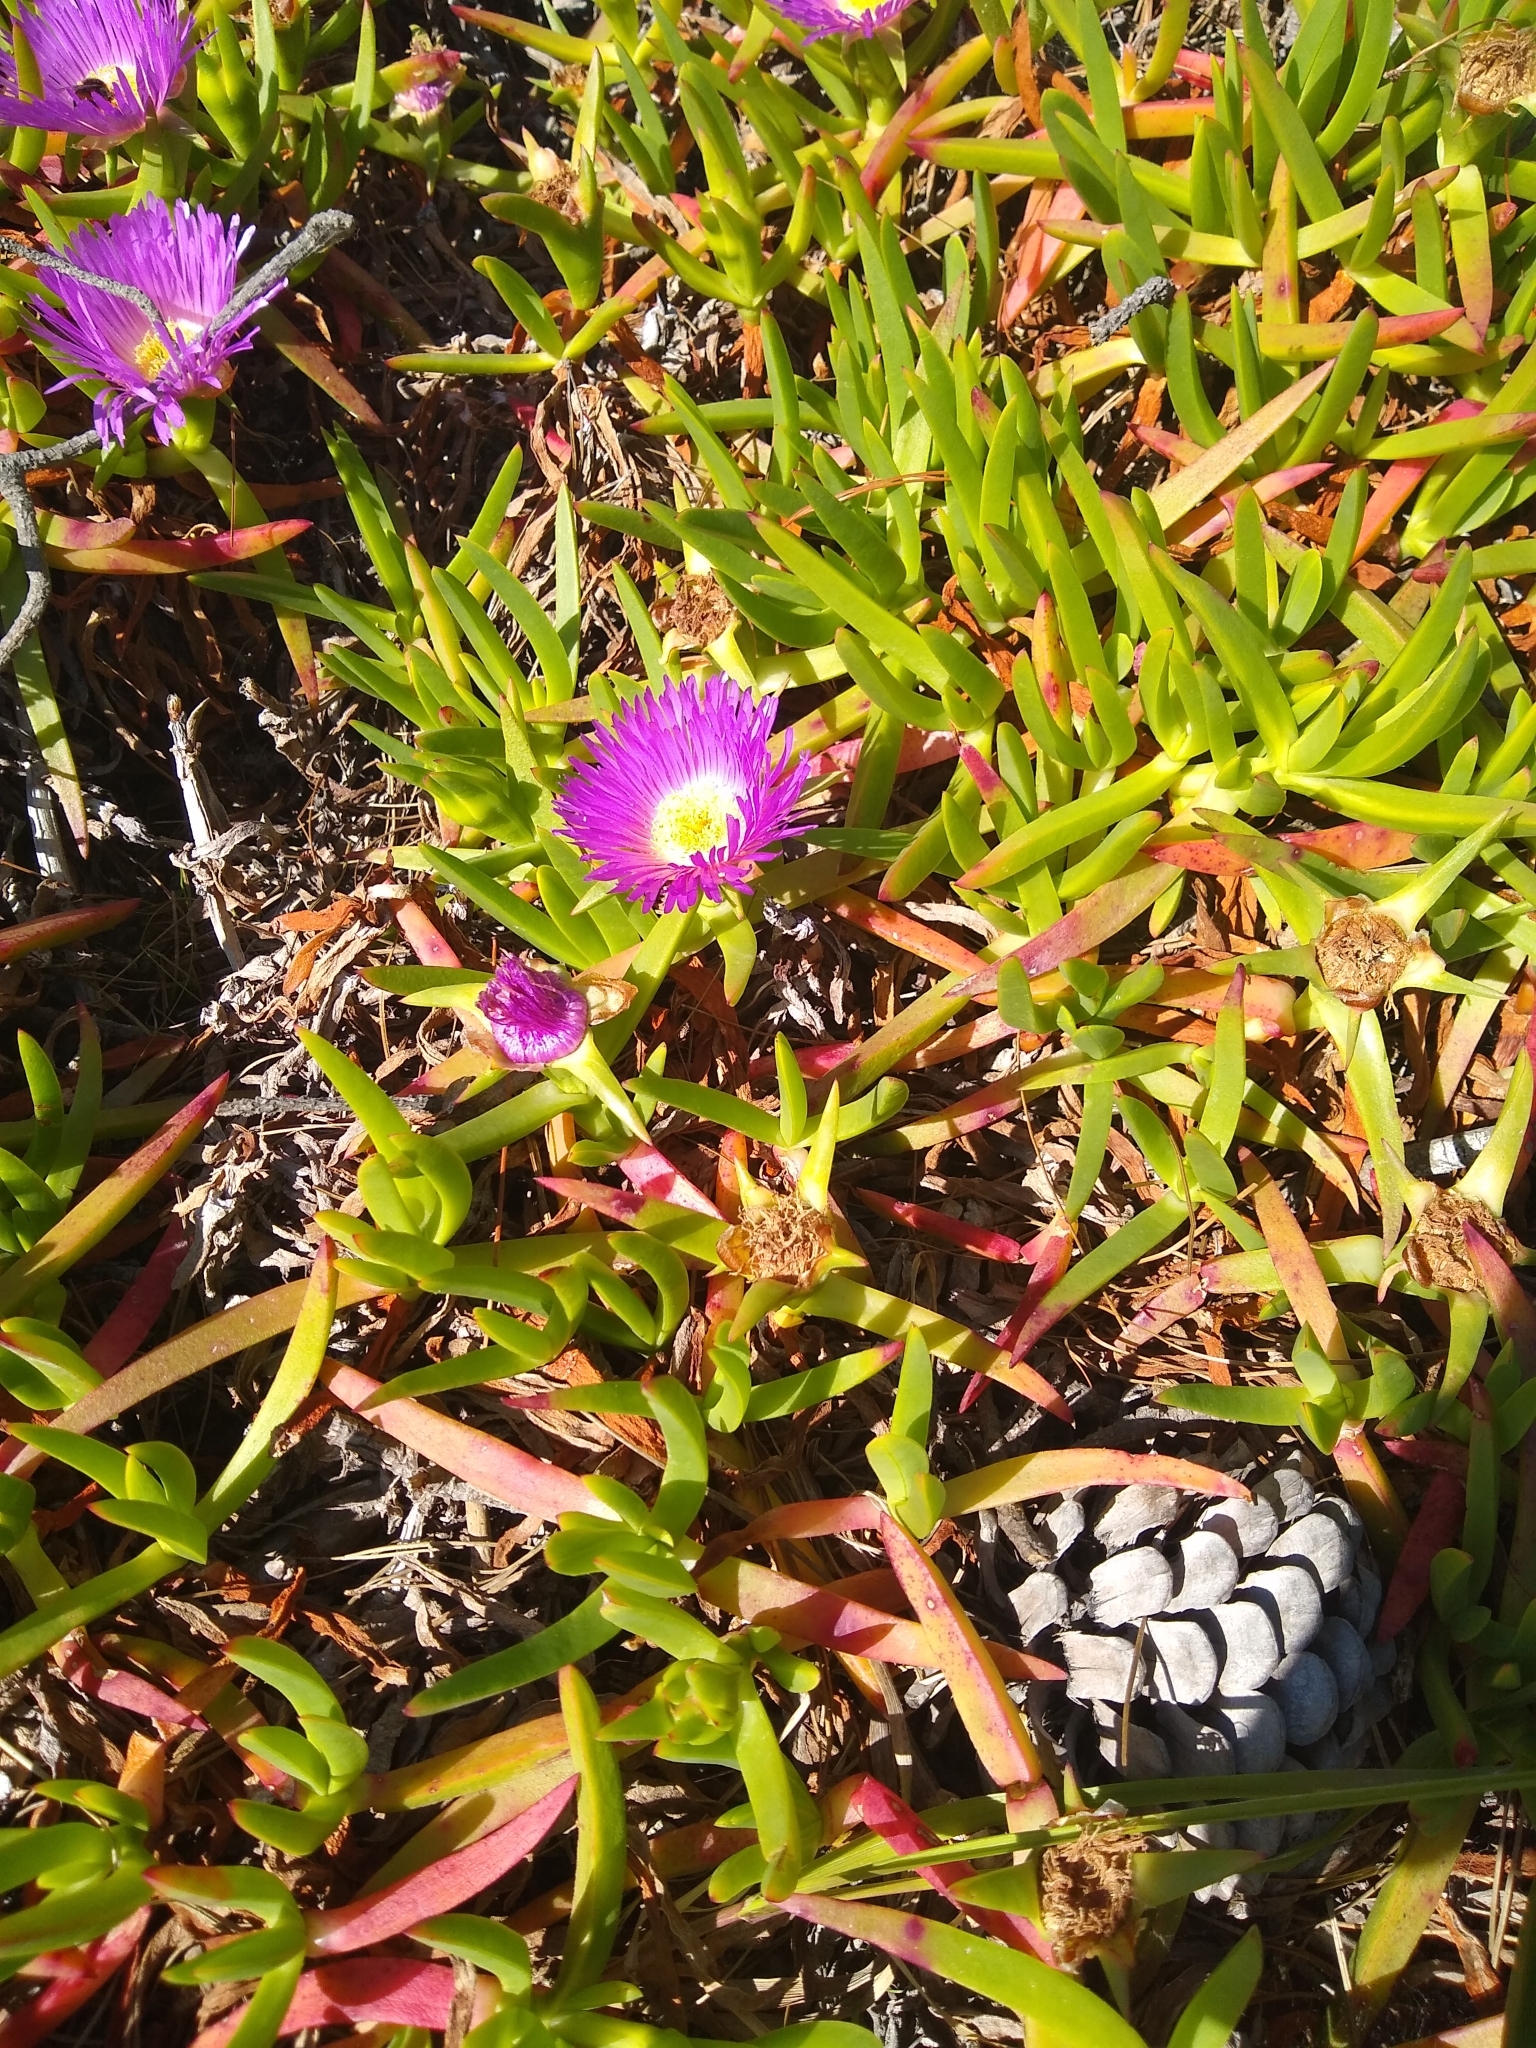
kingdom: Plantae
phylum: Tracheophyta
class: Magnoliopsida
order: Caryophyllales
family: Aizoaceae
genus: Carpobrotus
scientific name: Carpobrotus chilensis
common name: Sea fig
